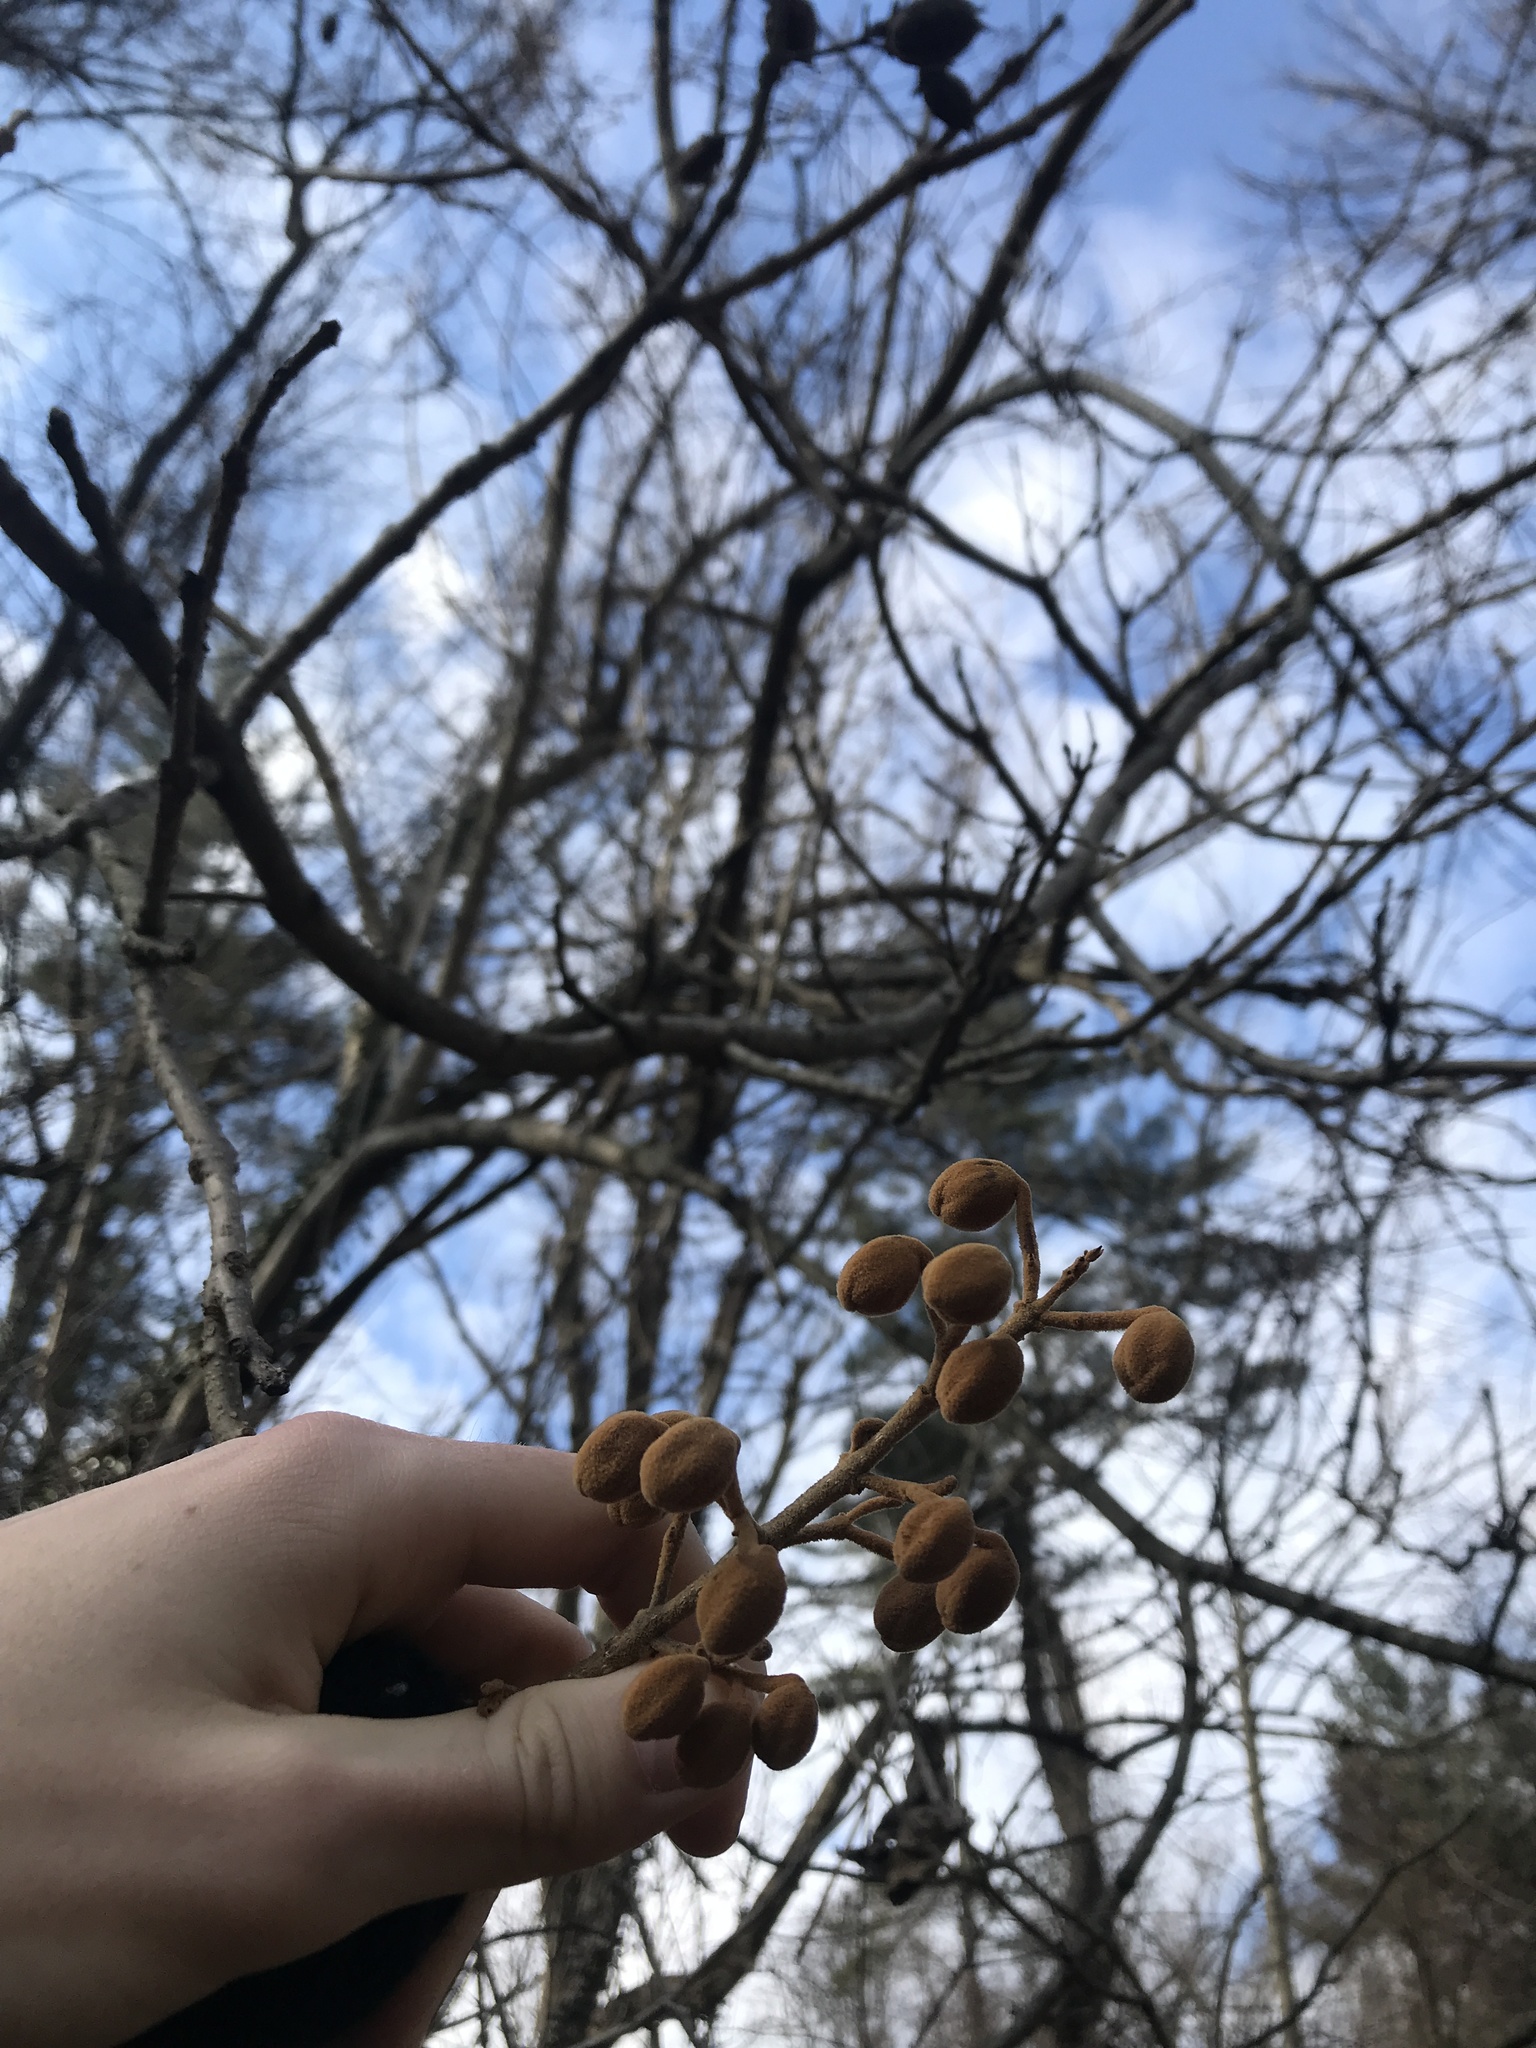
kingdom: Plantae
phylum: Tracheophyta
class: Magnoliopsida
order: Lamiales
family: Paulowniaceae
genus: Paulownia
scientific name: Paulownia tomentosa
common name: Foxglove-tree
